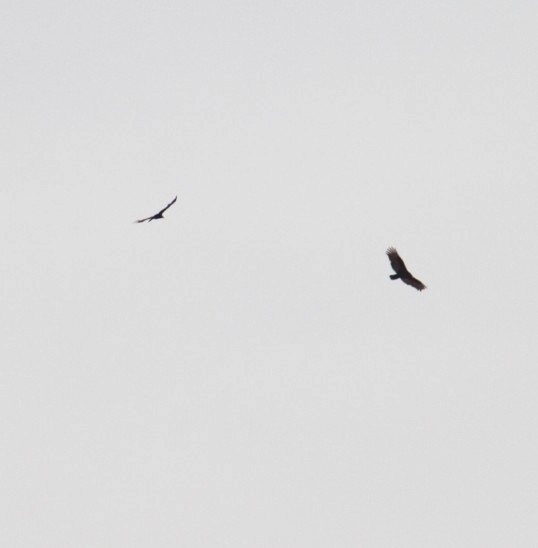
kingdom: Animalia
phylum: Chordata
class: Aves
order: Accipitriformes
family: Cathartidae
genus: Cathartes
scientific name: Cathartes aura
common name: Turkey vulture
